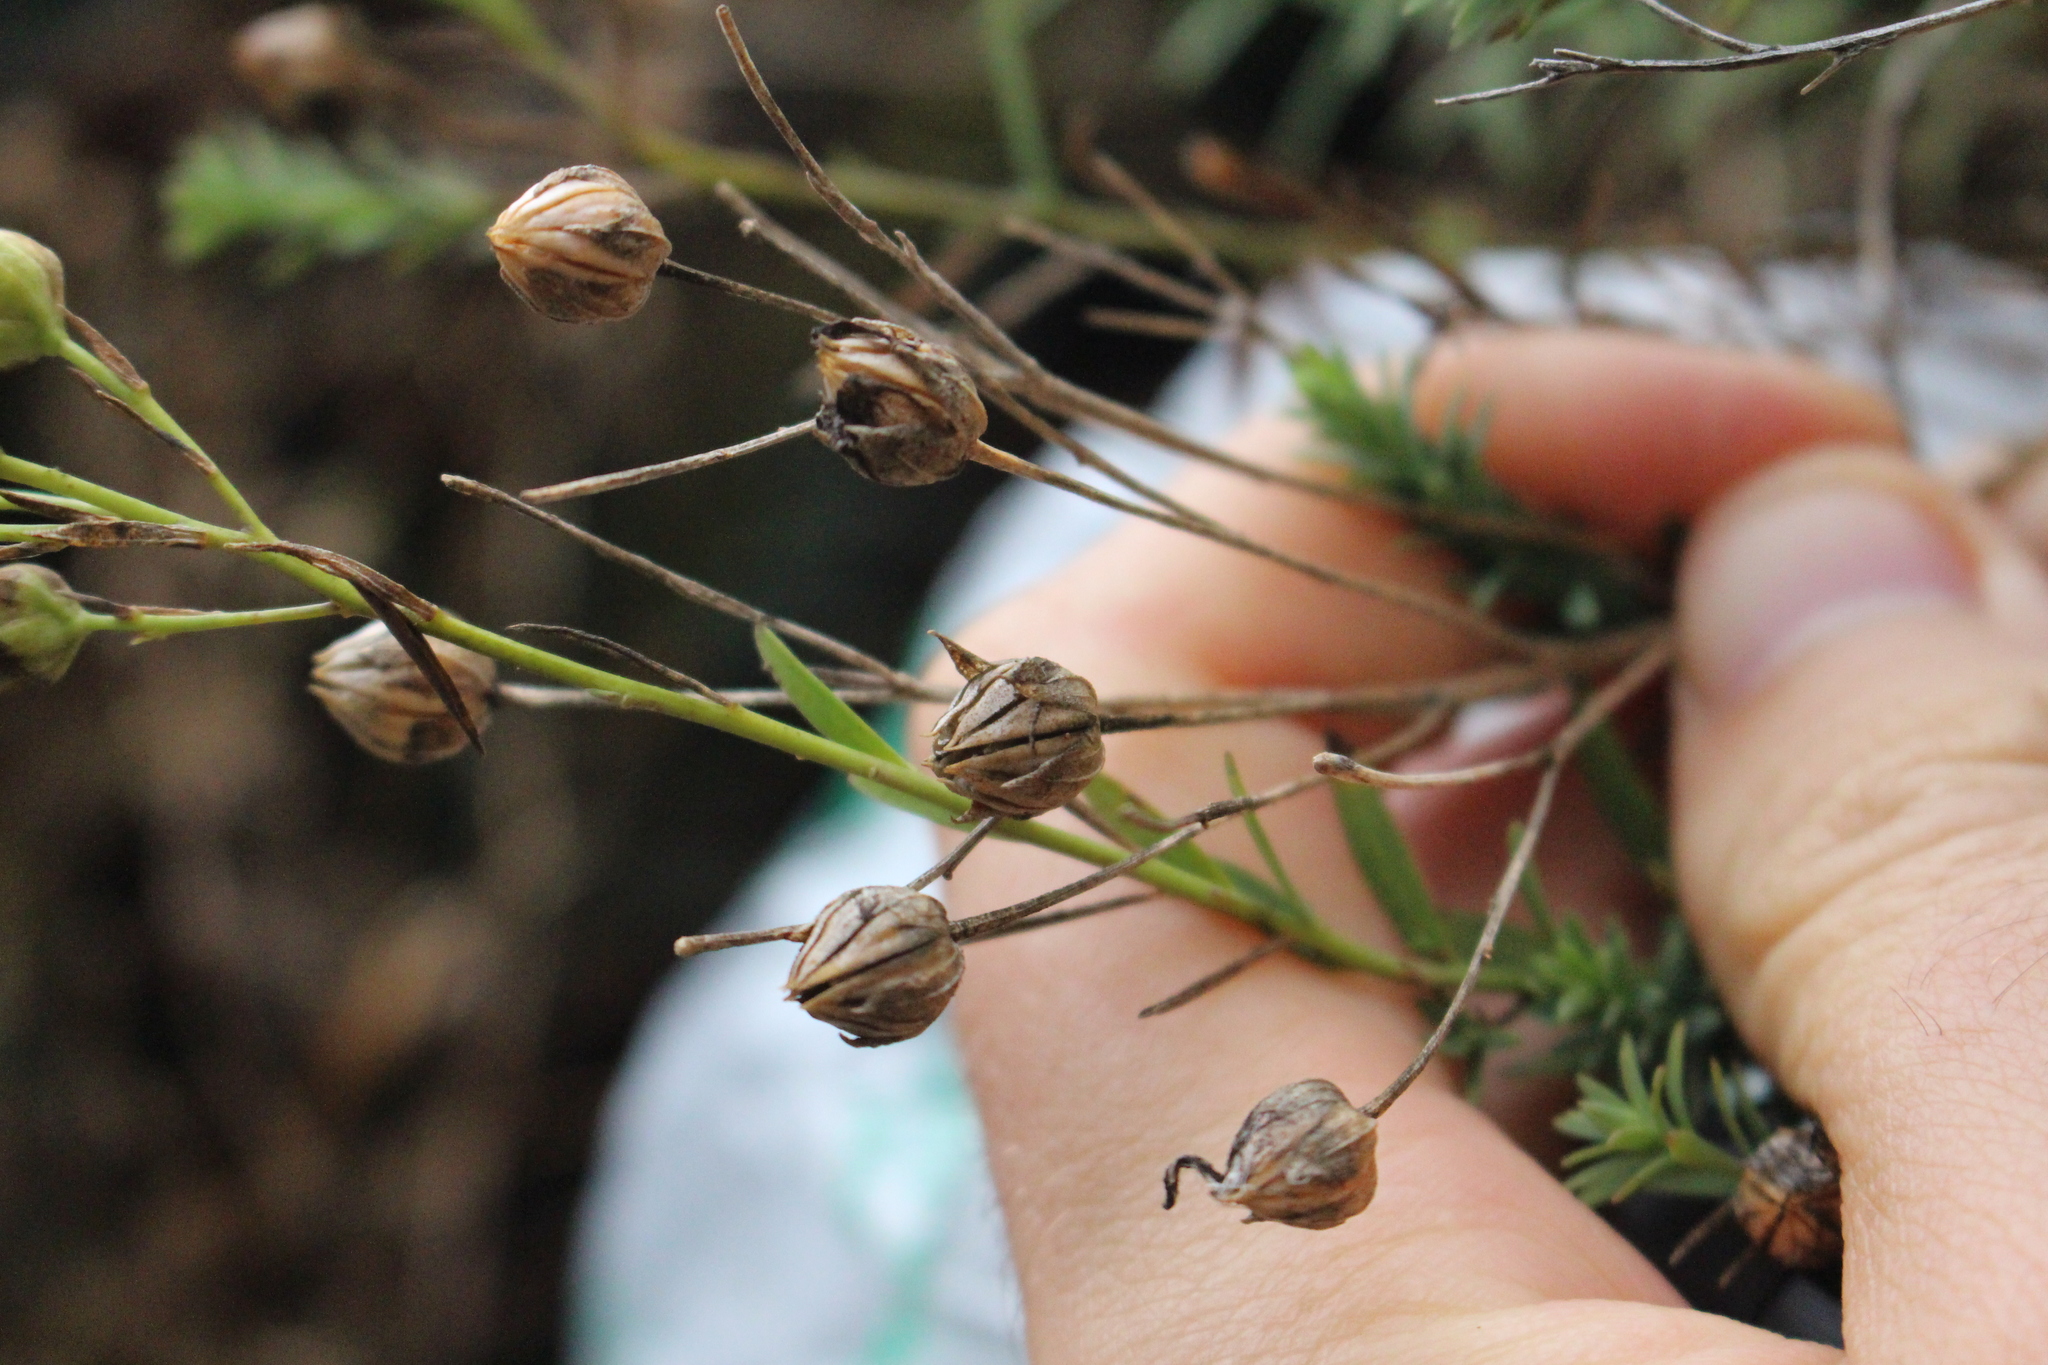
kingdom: Plantae
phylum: Tracheophyta
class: Magnoliopsida
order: Malpighiales
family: Linaceae
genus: Linum
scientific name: Linum monogynum
